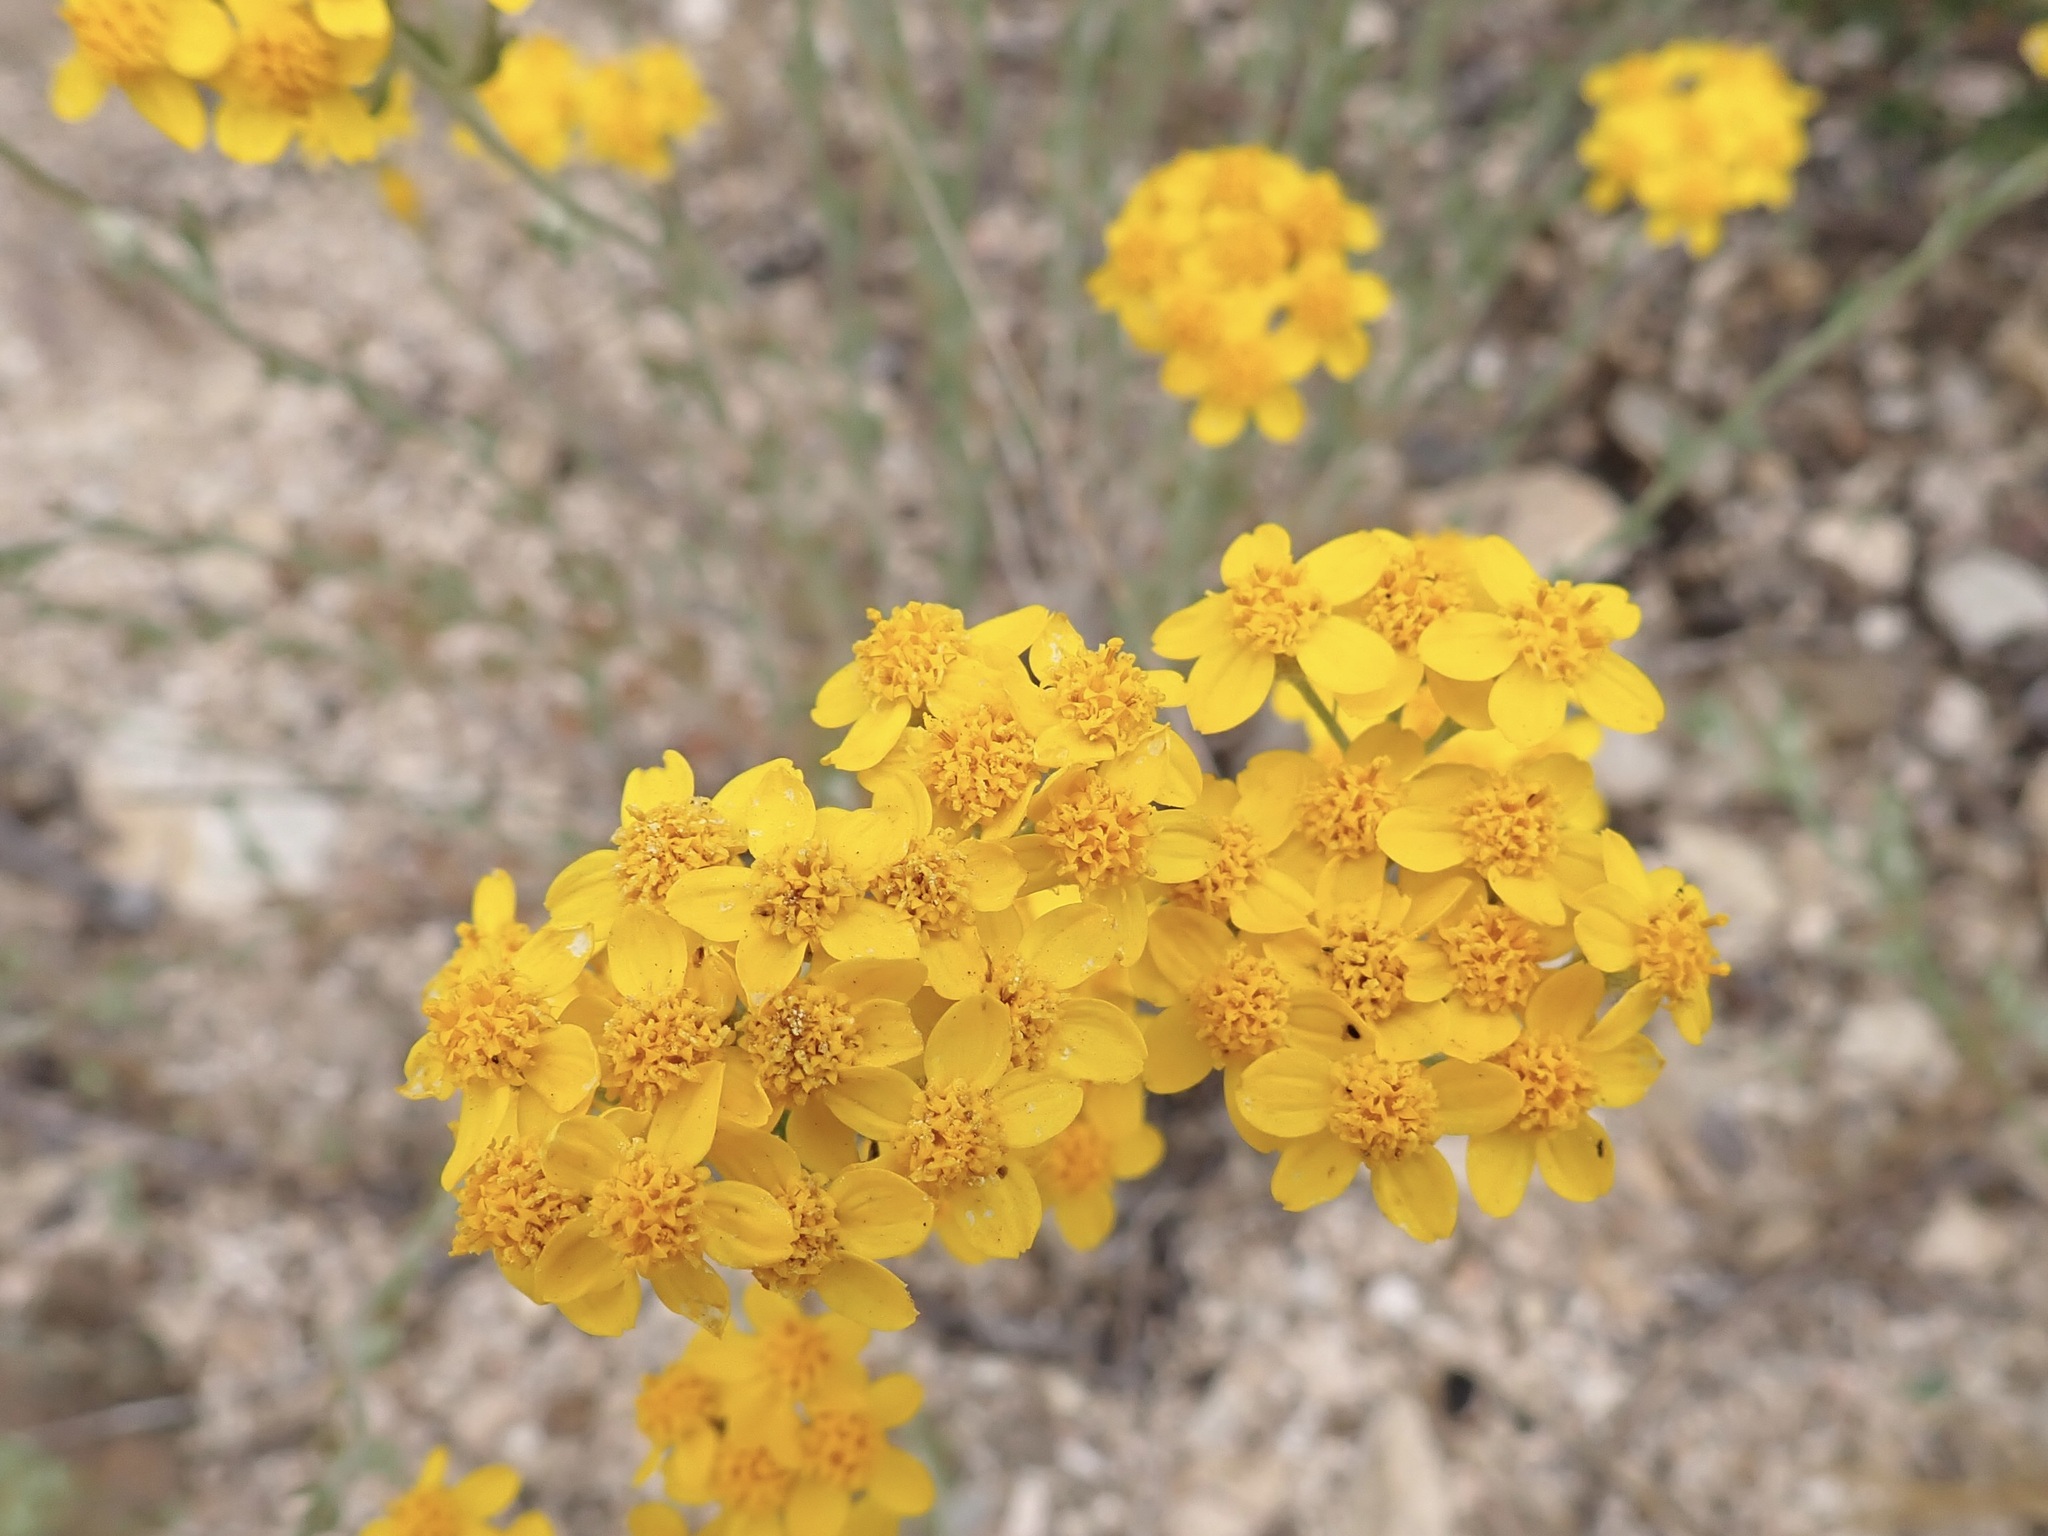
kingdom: Plantae
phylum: Tracheophyta
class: Magnoliopsida
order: Asterales
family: Asteraceae
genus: Eriophyllum
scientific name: Eriophyllum confertiflorum
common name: Golden-yarrow
